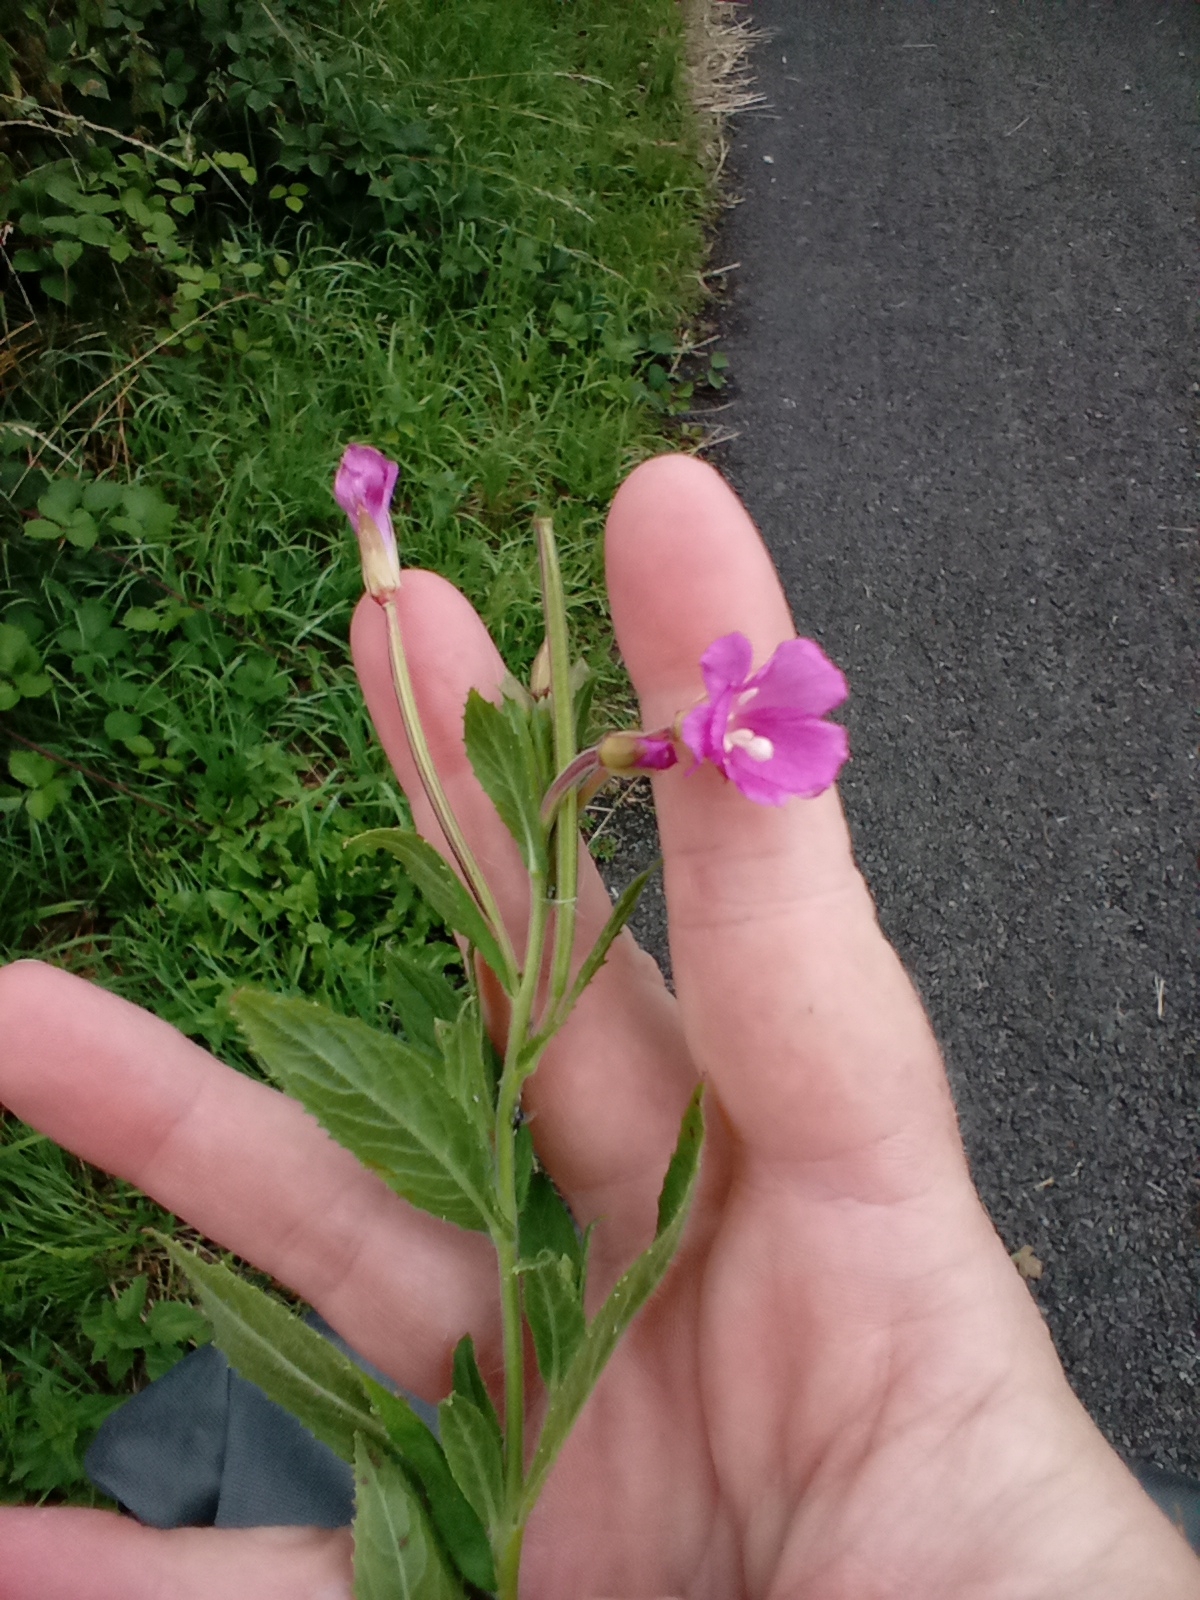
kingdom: Plantae
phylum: Tracheophyta
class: Magnoliopsida
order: Myrtales
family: Onagraceae
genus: Epilobium
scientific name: Epilobium hirsutum
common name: Great willowherb
